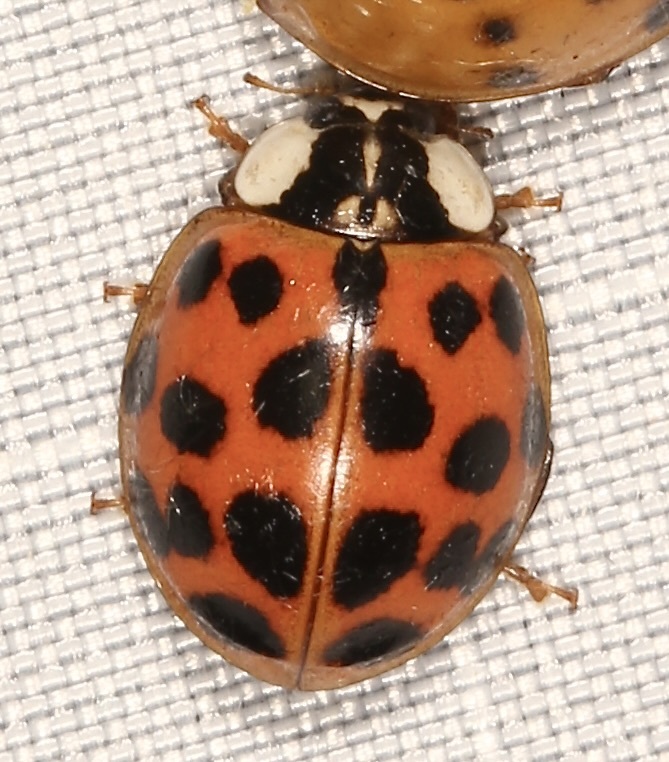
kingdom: Animalia
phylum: Arthropoda
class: Insecta
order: Coleoptera
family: Coccinellidae
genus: Harmonia
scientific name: Harmonia axyridis
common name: Harlequin ladybird
